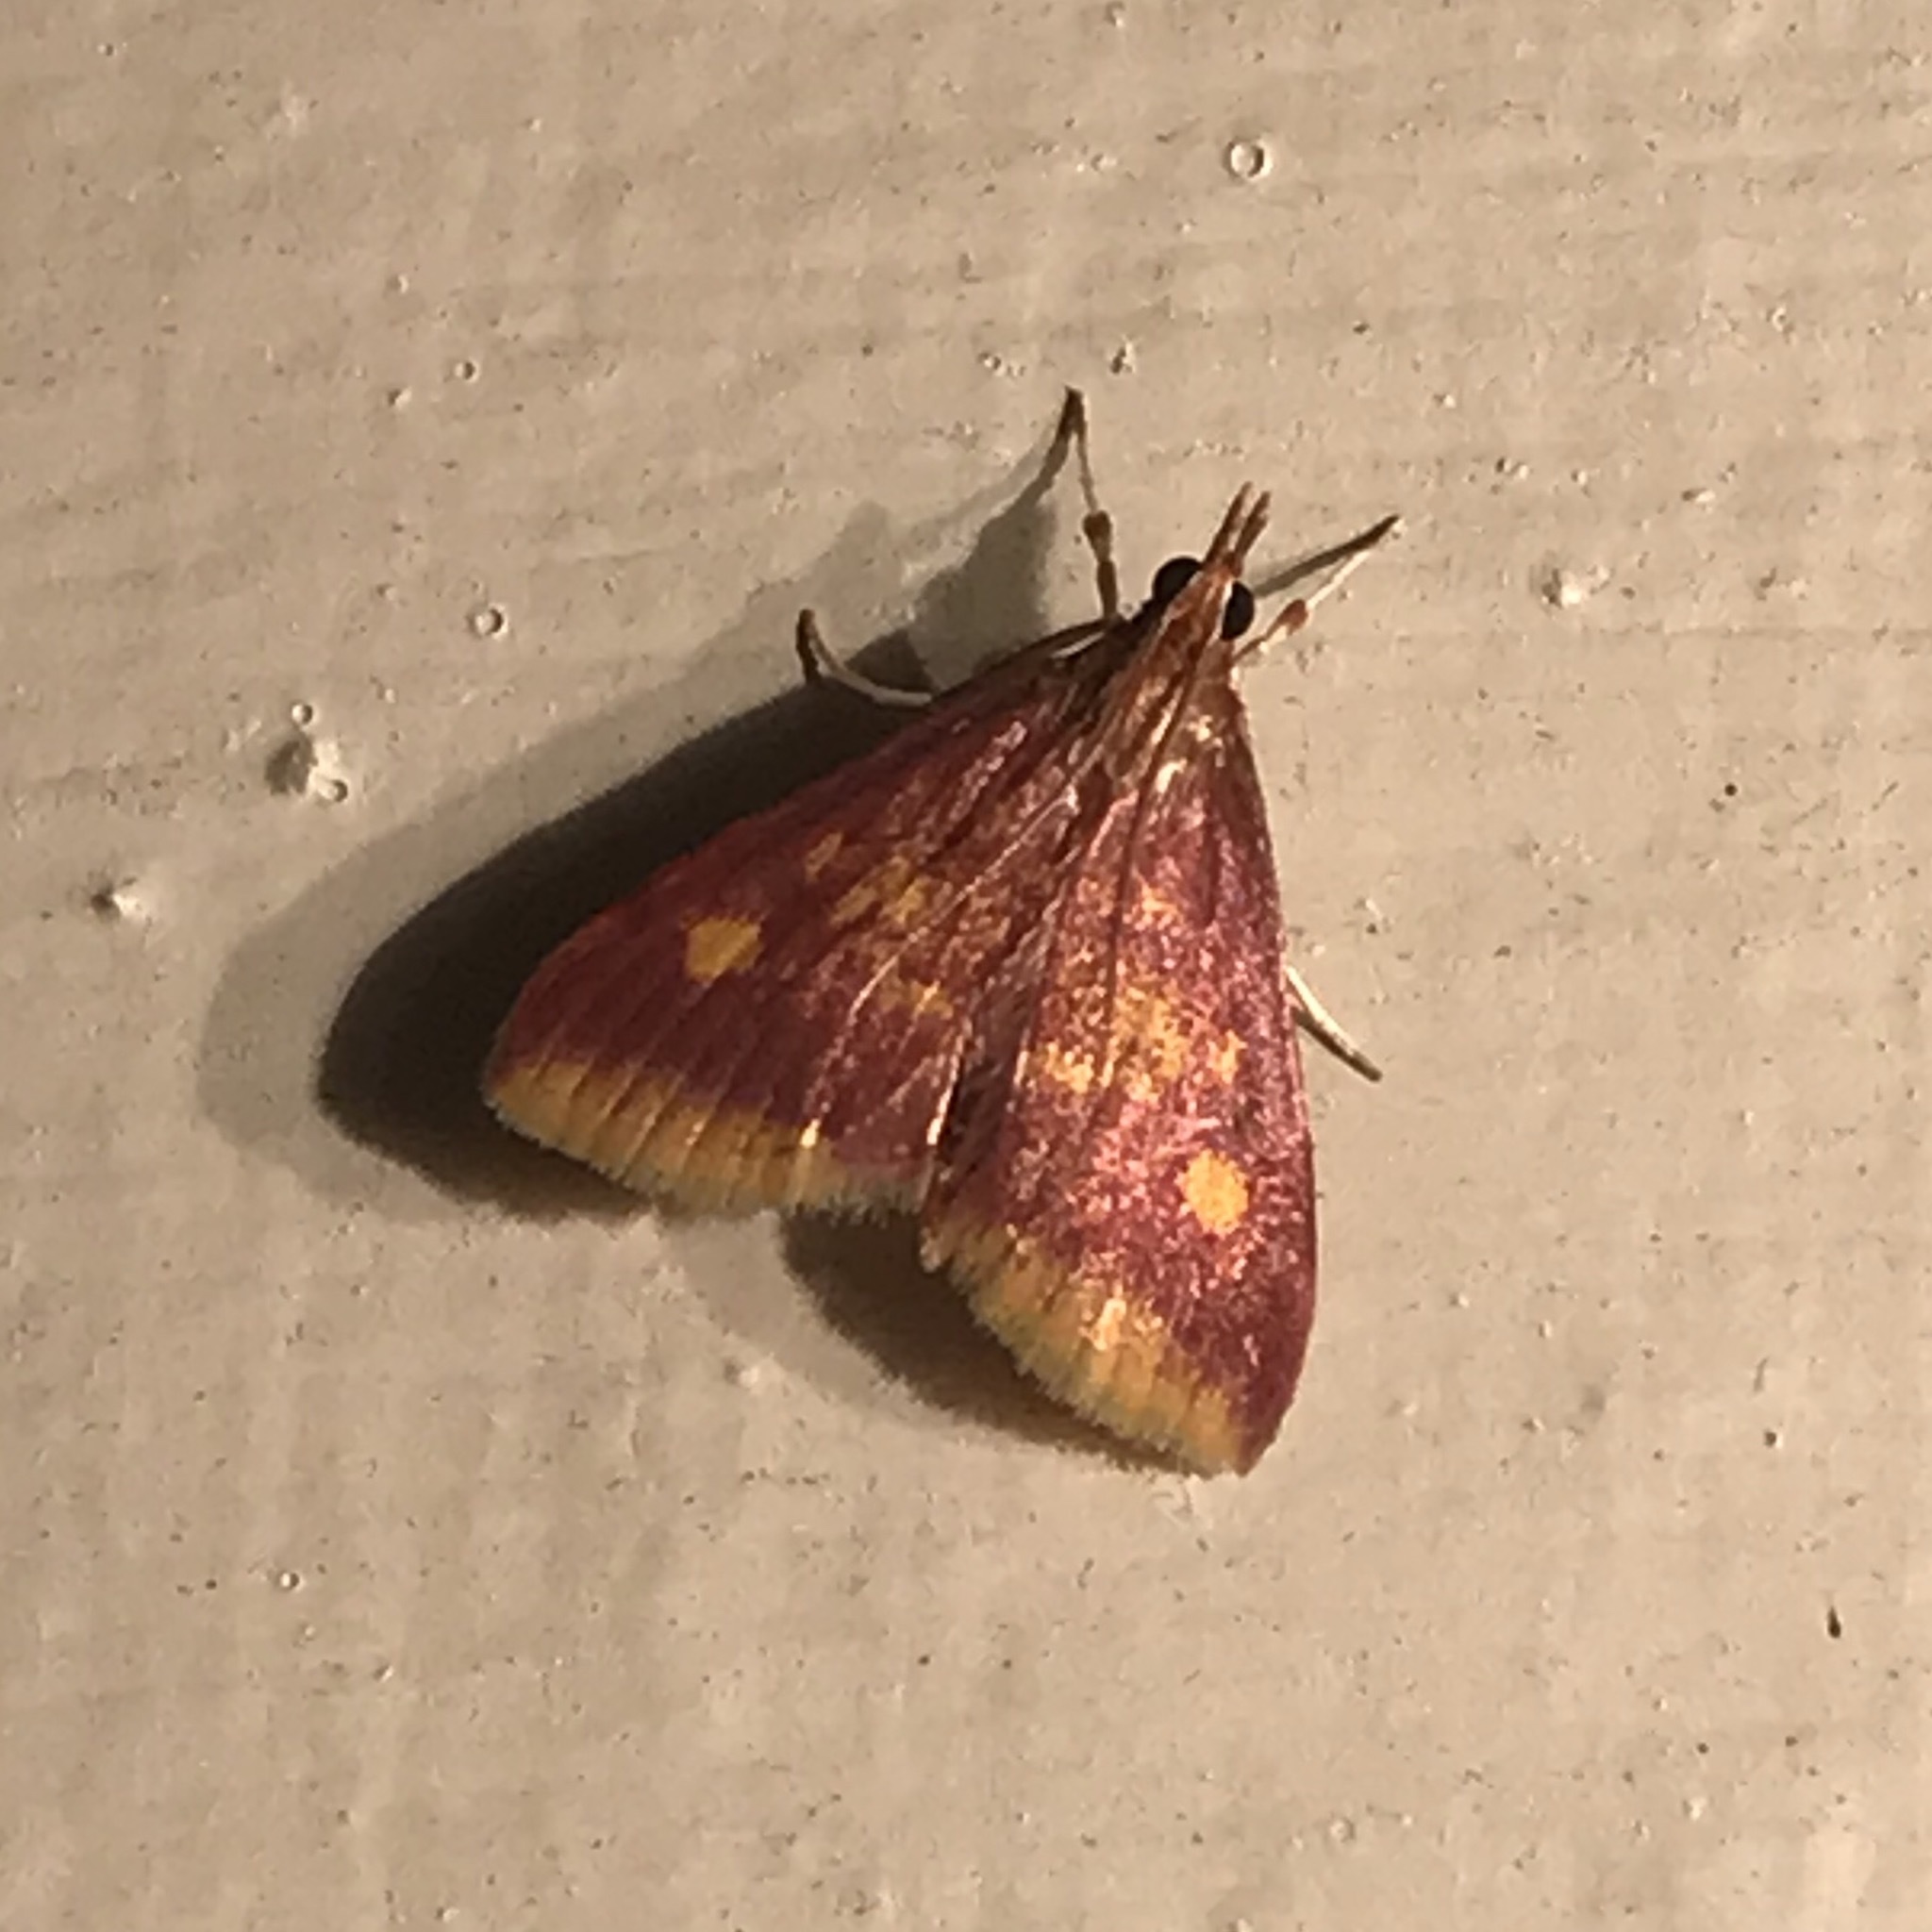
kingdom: Animalia
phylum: Arthropoda
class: Insecta
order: Lepidoptera
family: Crambidae
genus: Pyrausta
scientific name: Pyrausta acrionalis
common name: Mint-loving pyrausta moth
